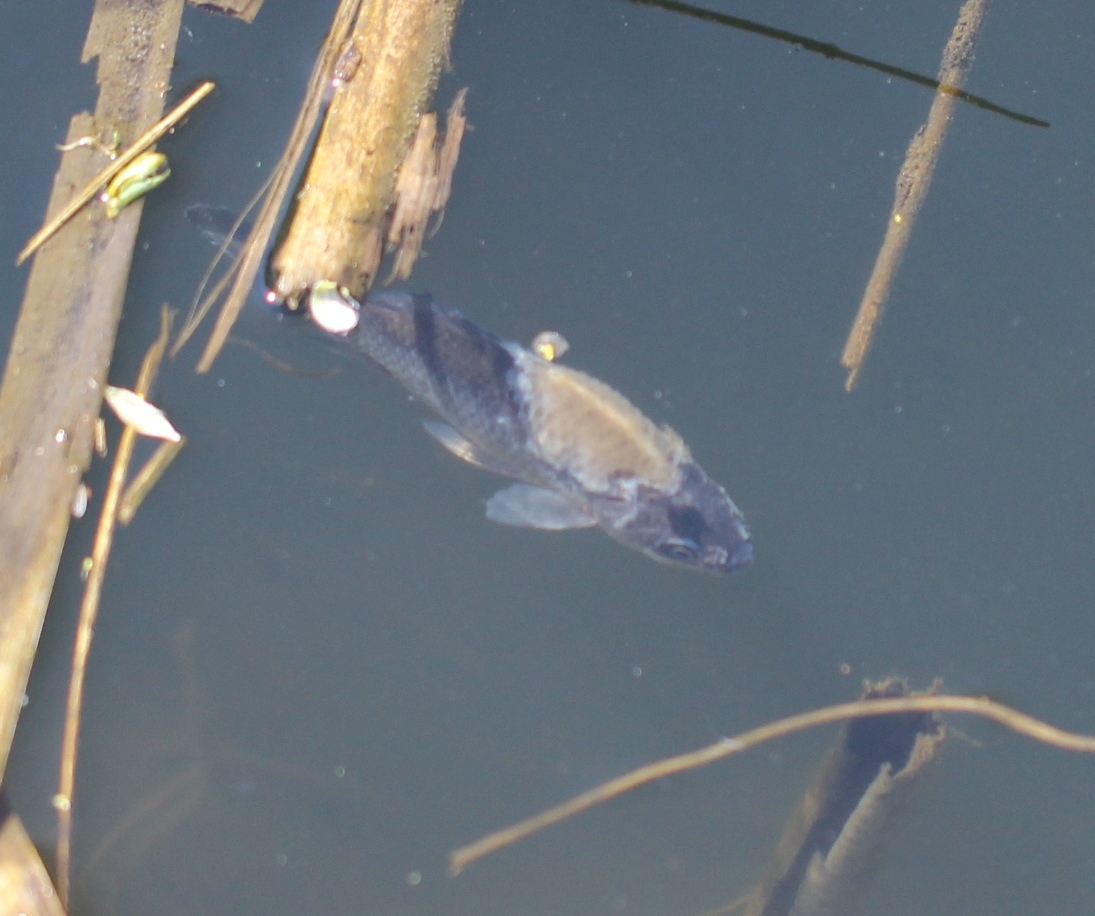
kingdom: Animalia
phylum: Chordata
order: Cypriniformes
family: Cyprinidae
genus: Carassius
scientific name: Carassius gibelio
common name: Prussian carp
